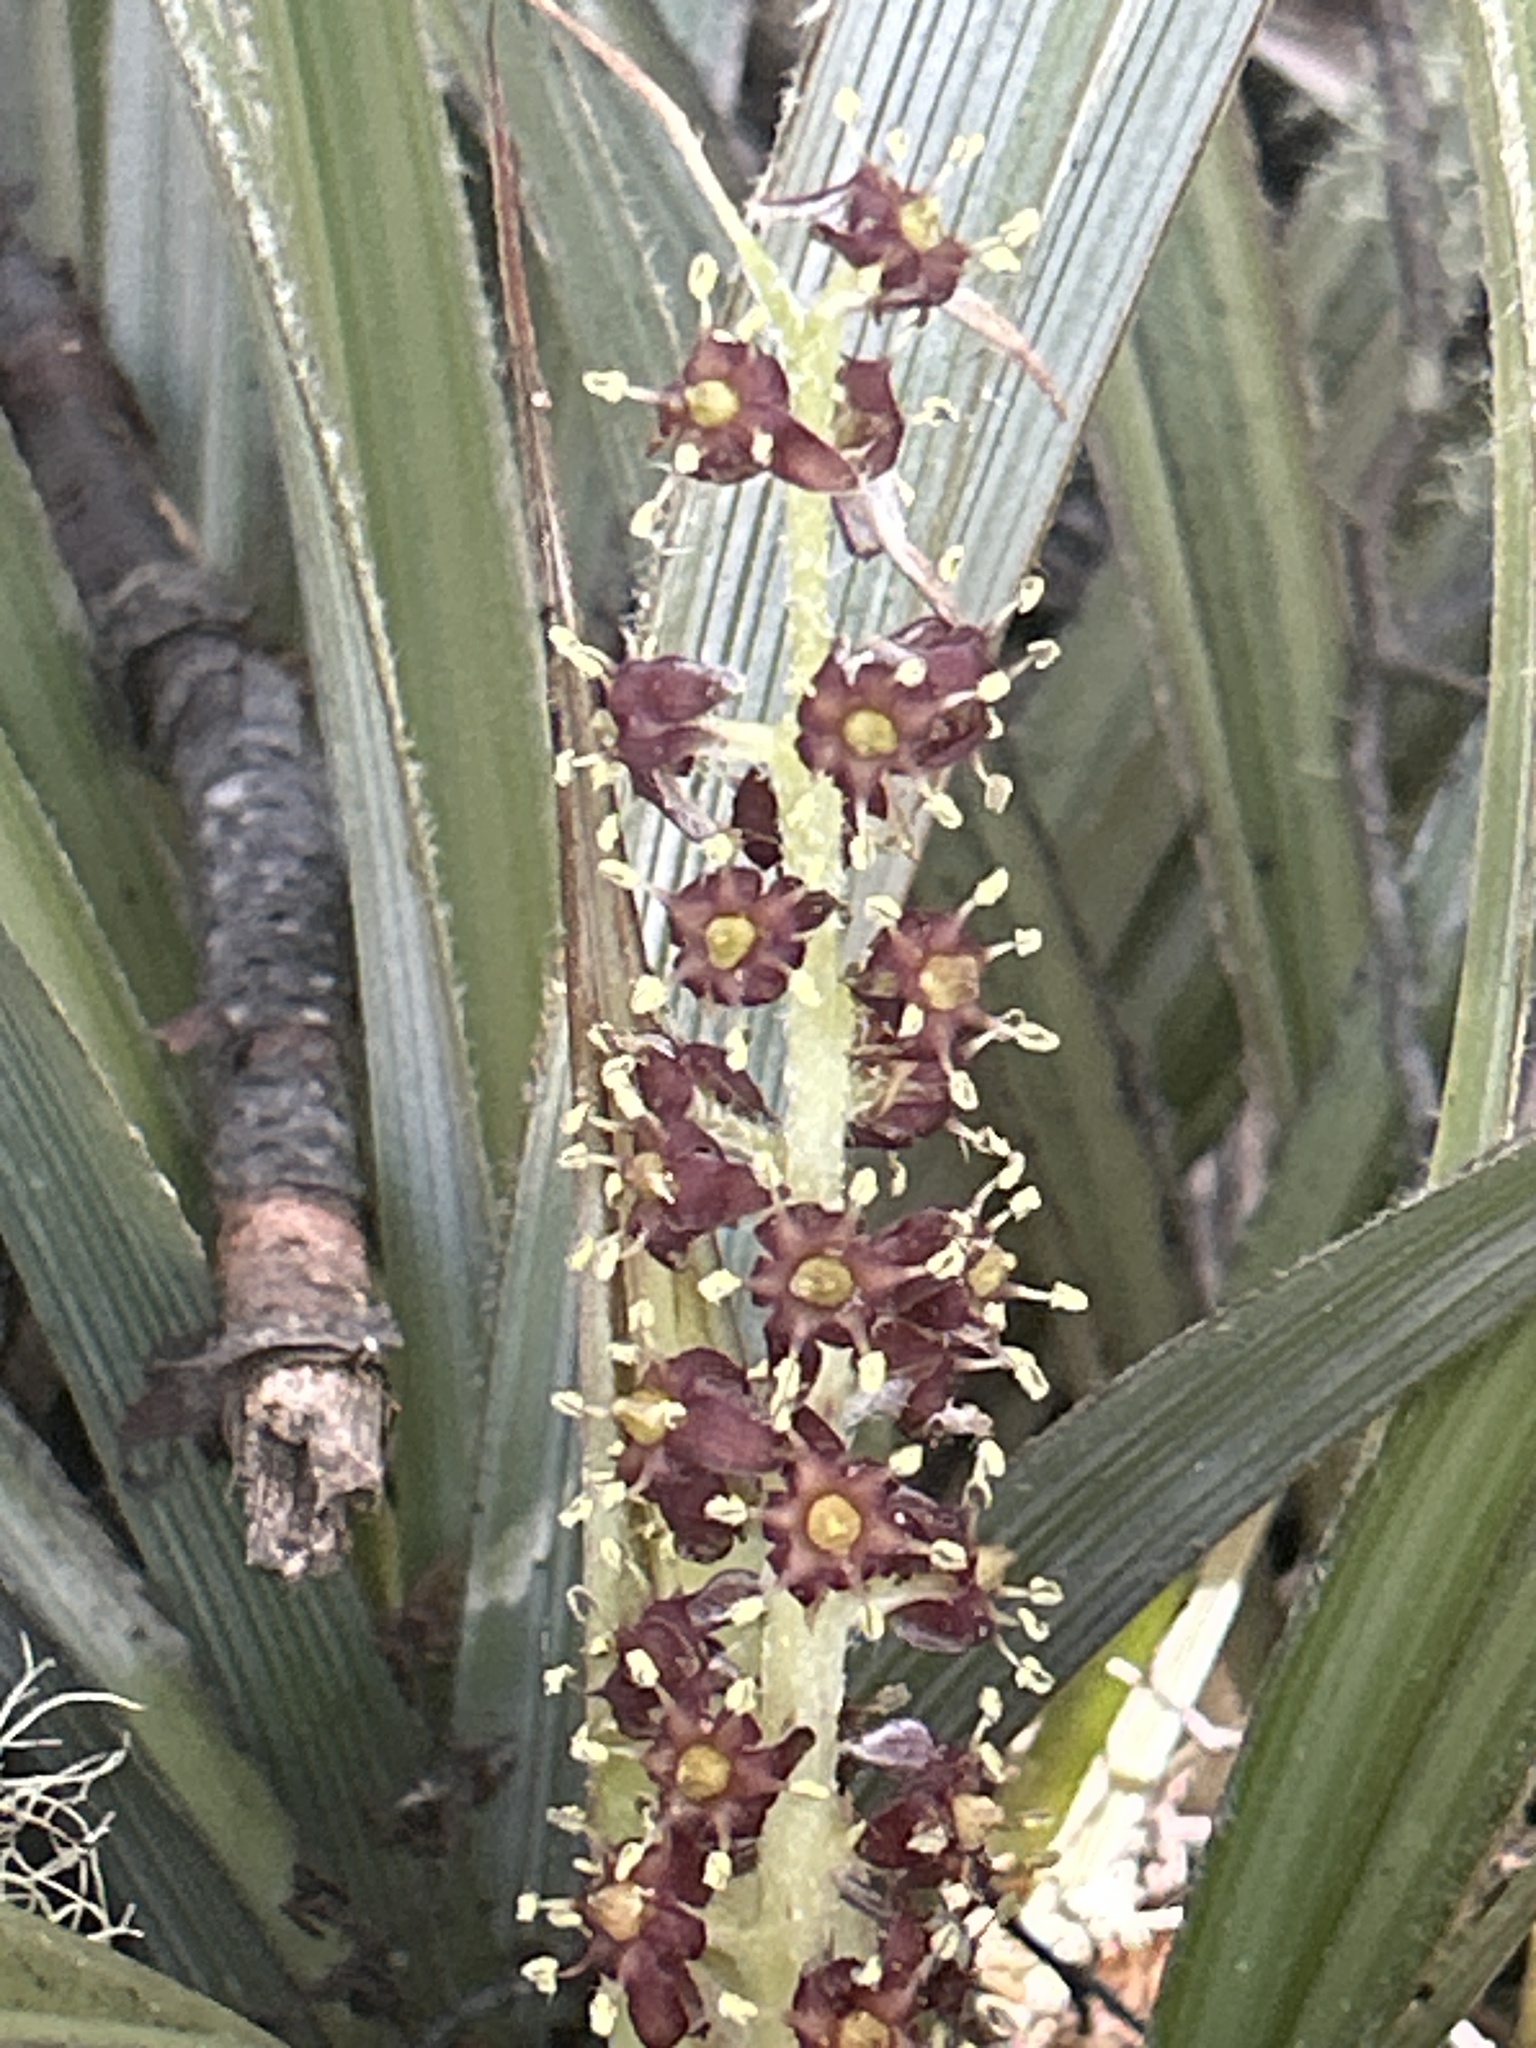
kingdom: Plantae
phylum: Tracheophyta
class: Liliopsida
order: Asparagales
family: Asteliaceae
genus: Astelia
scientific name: Astelia nervosa
